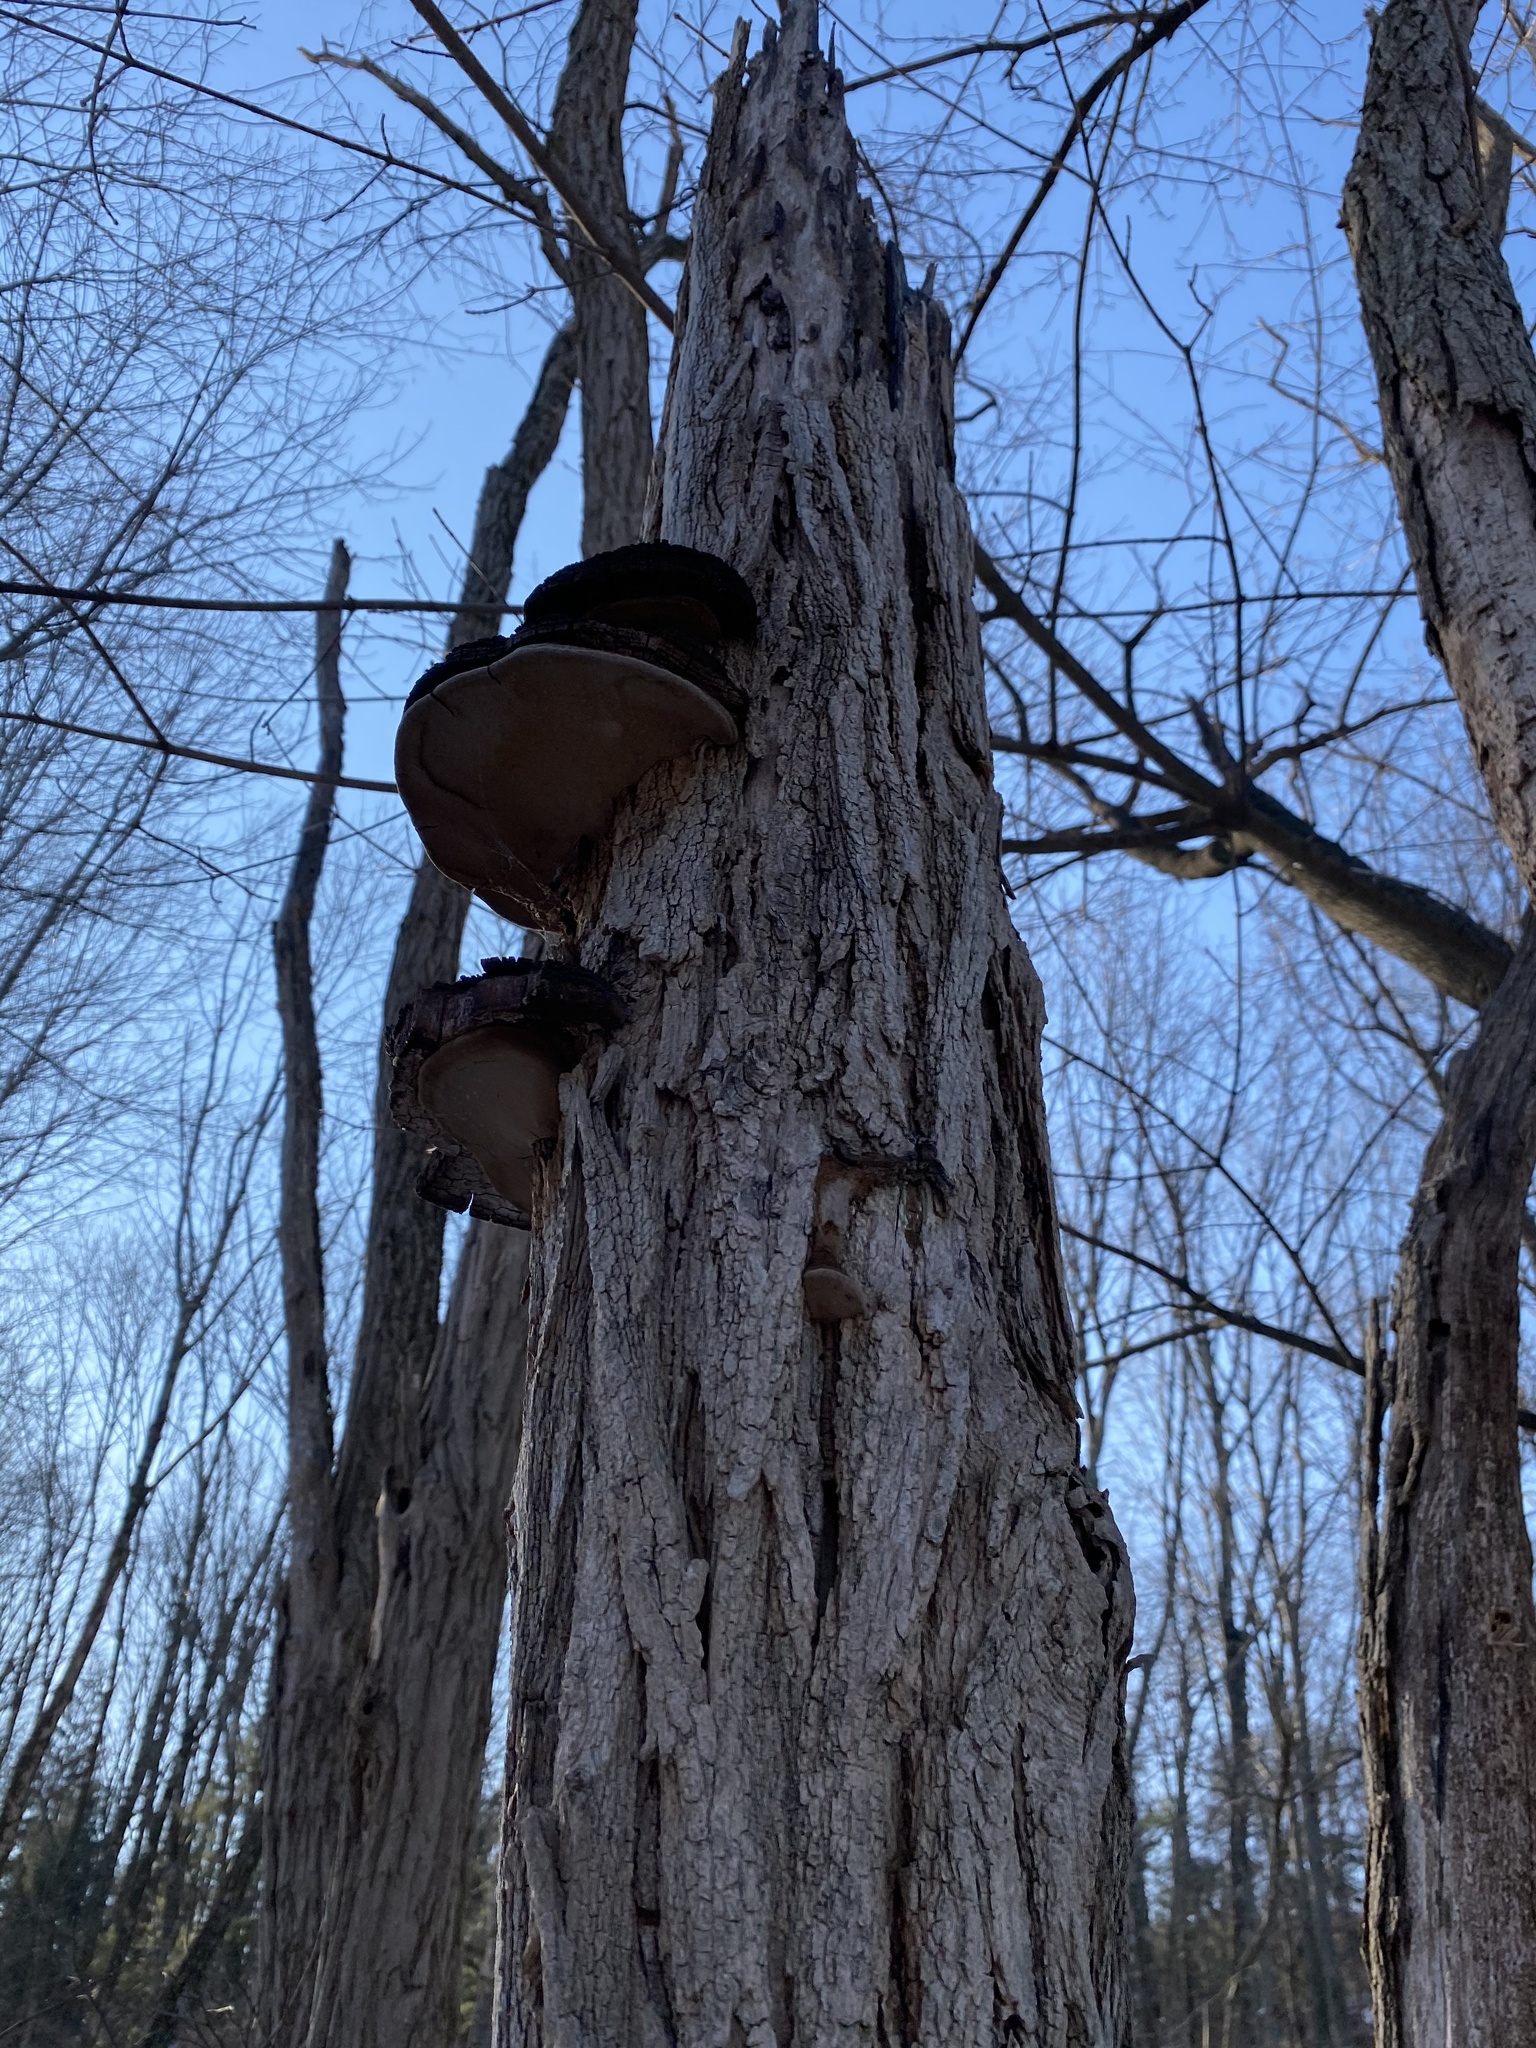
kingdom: Fungi
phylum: Basidiomycota
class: Agaricomycetes
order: Hymenochaetales
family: Hymenochaetaceae
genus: Phellinus
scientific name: Phellinus robiniae
